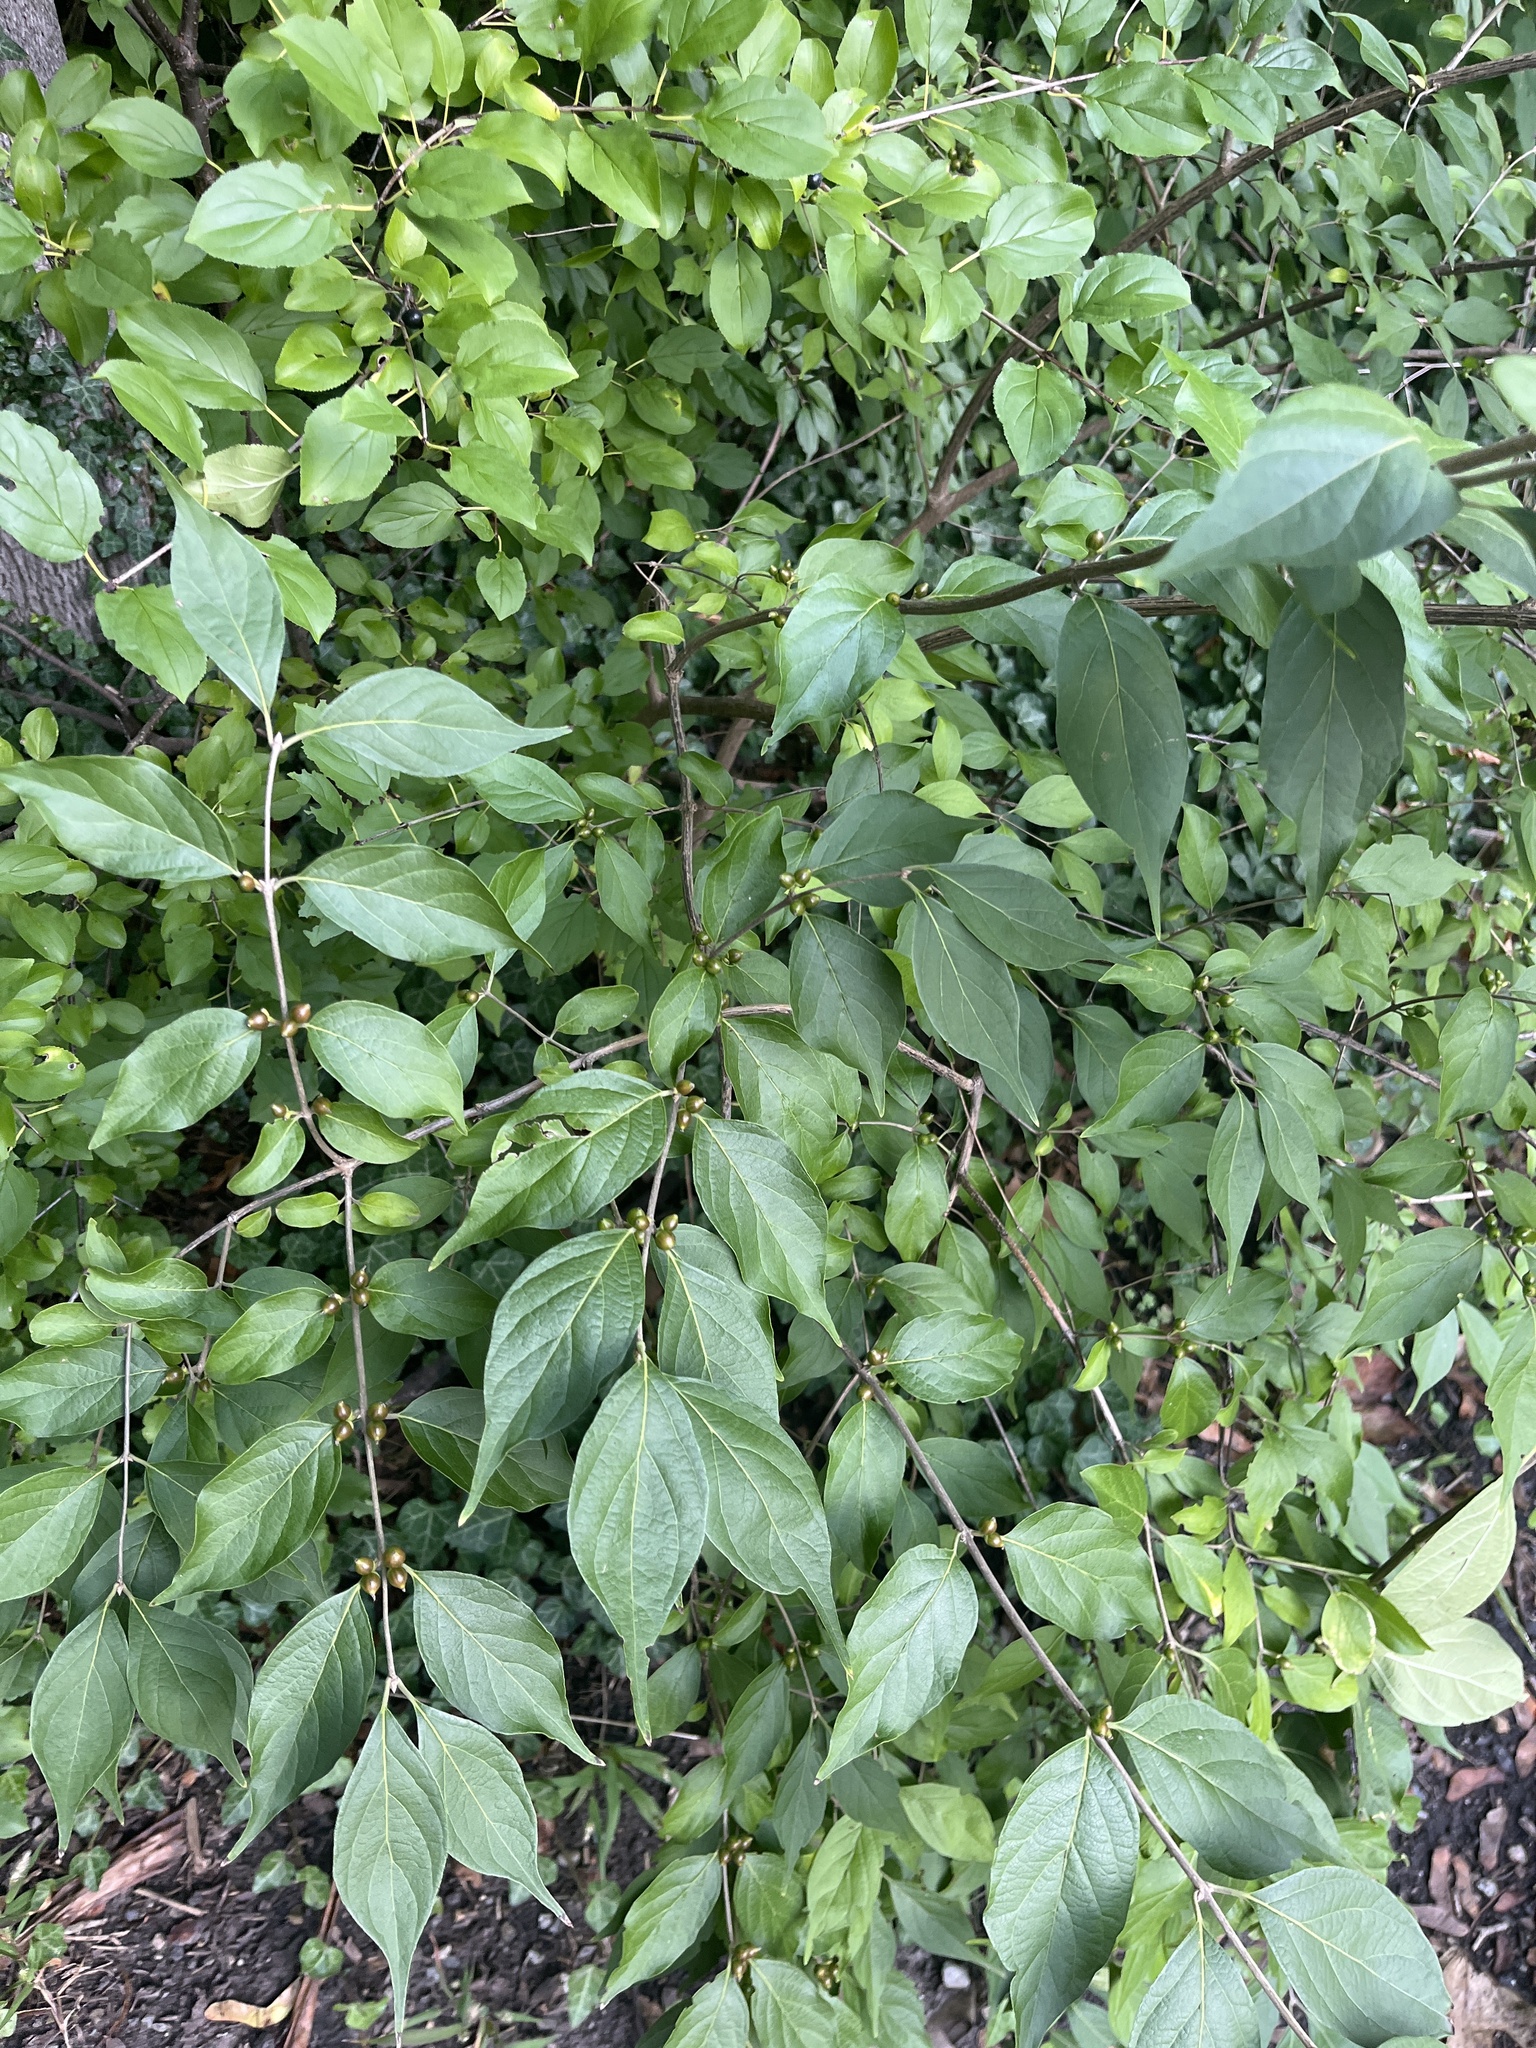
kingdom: Plantae
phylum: Tracheophyta
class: Magnoliopsida
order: Dipsacales
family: Caprifoliaceae
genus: Lonicera
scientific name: Lonicera maackii
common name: Amur honeysuckle
